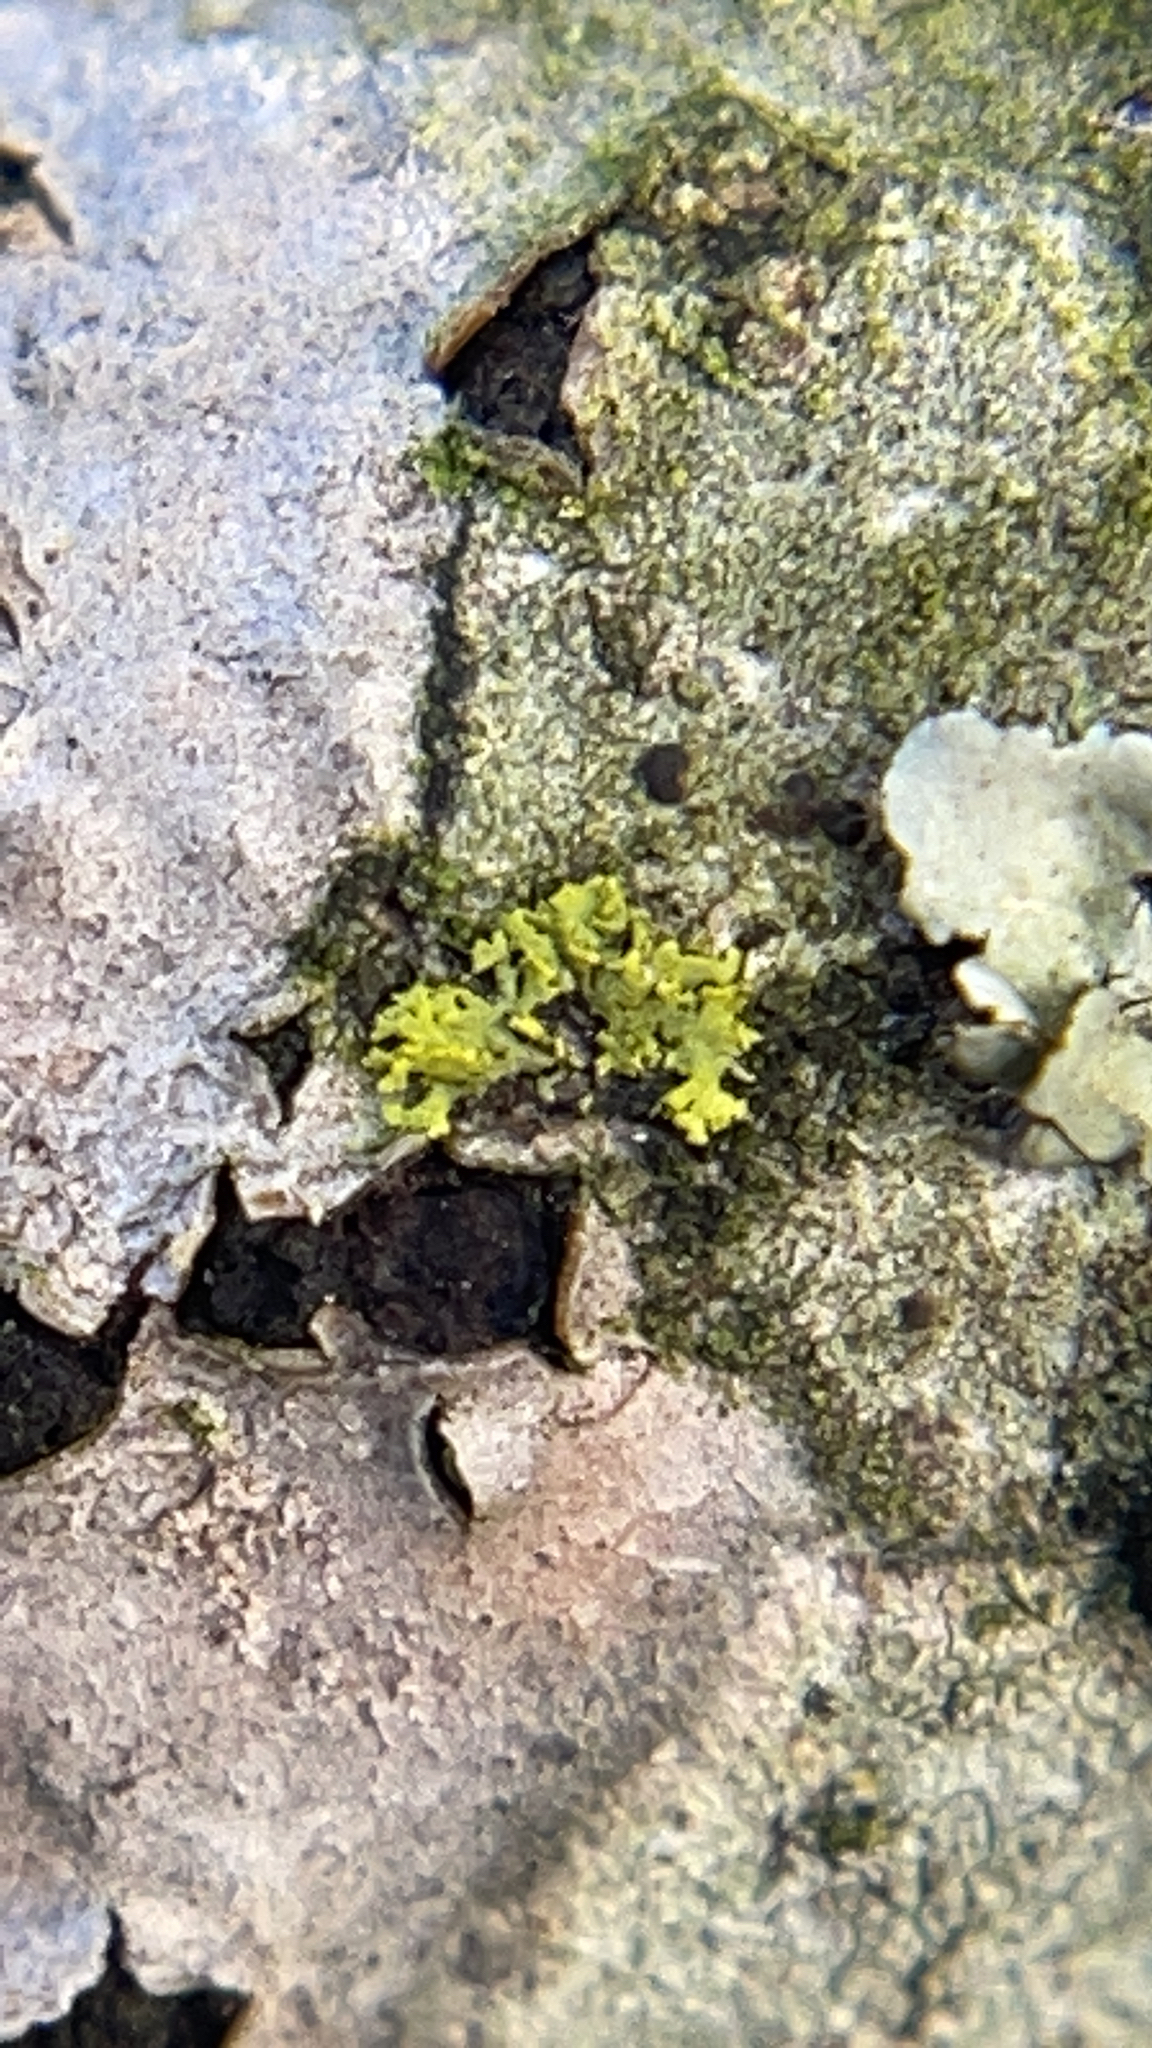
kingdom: Fungi
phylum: Ascomycota
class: Candelariomycetes
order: Candelariales
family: Candelariaceae
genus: Candelaria
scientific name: Candelaria concolor
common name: Candleflame lichen
